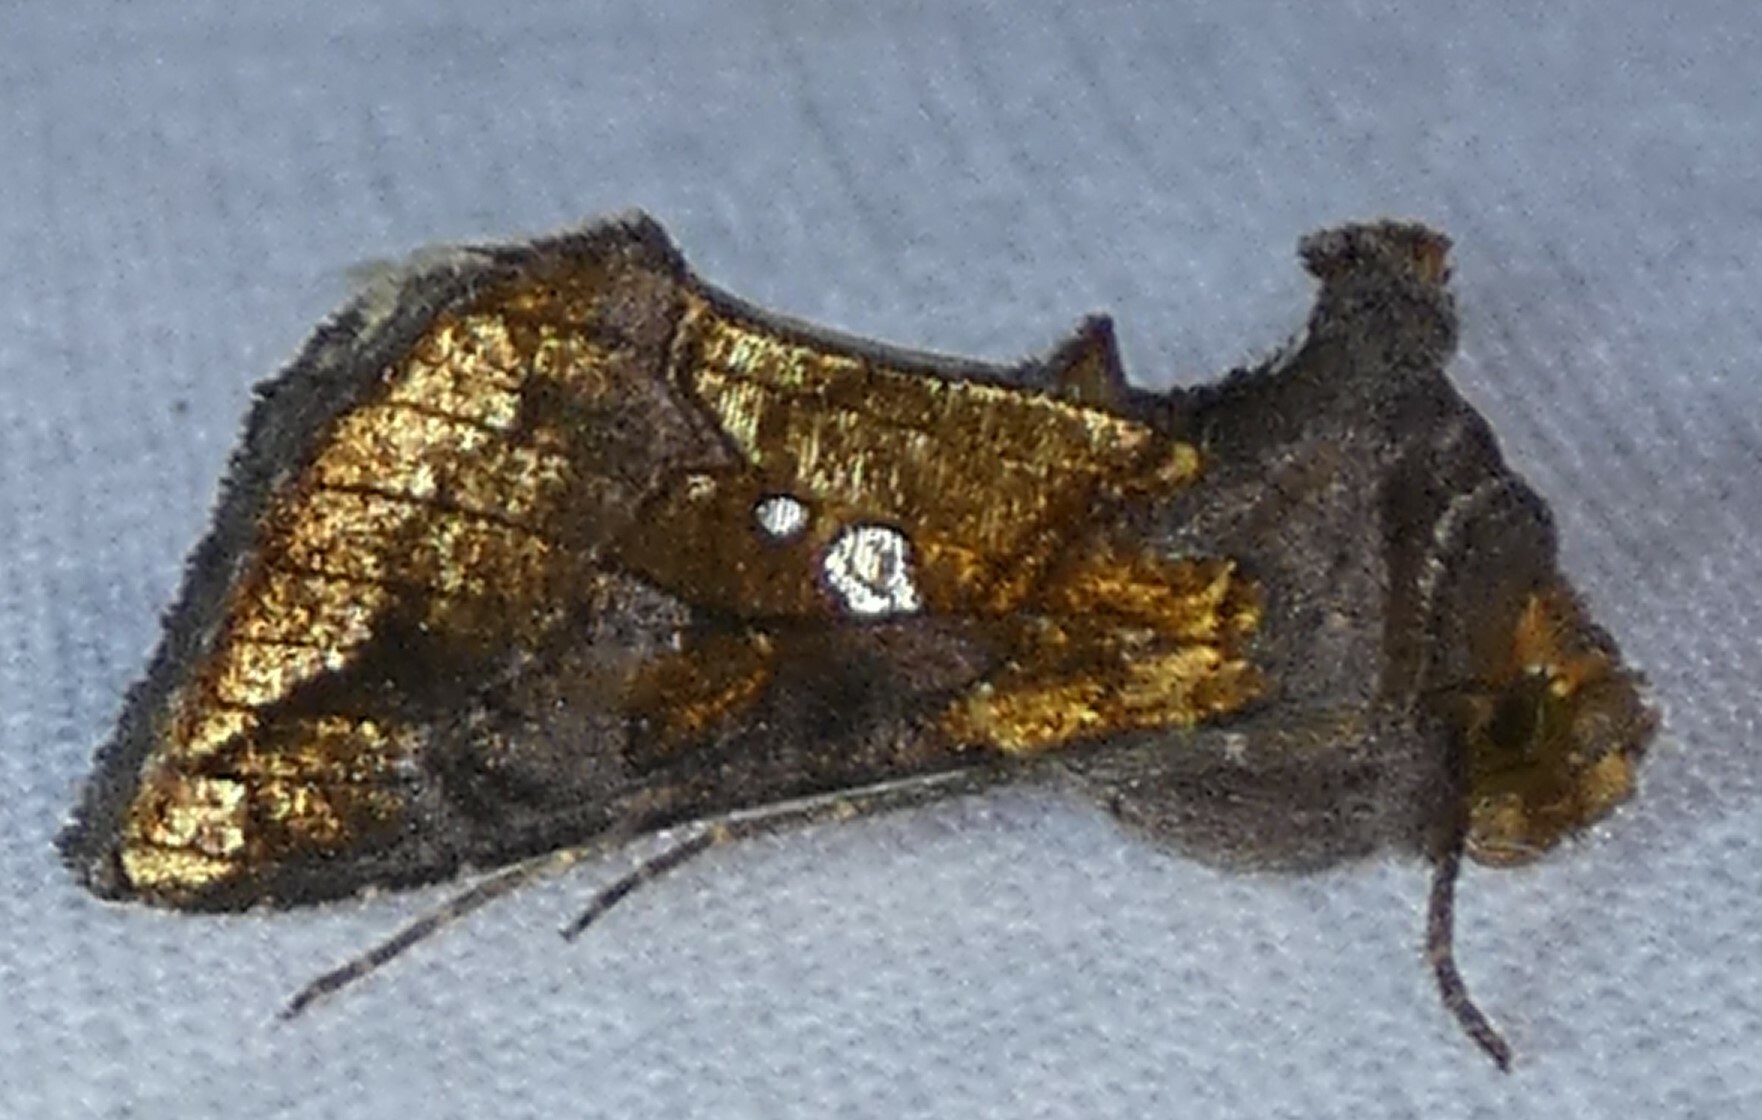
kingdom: Animalia
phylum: Arthropoda
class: Insecta
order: Lepidoptera
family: Noctuidae
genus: Argyrogramma
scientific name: Argyrogramma verruca
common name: Golden looper moth
